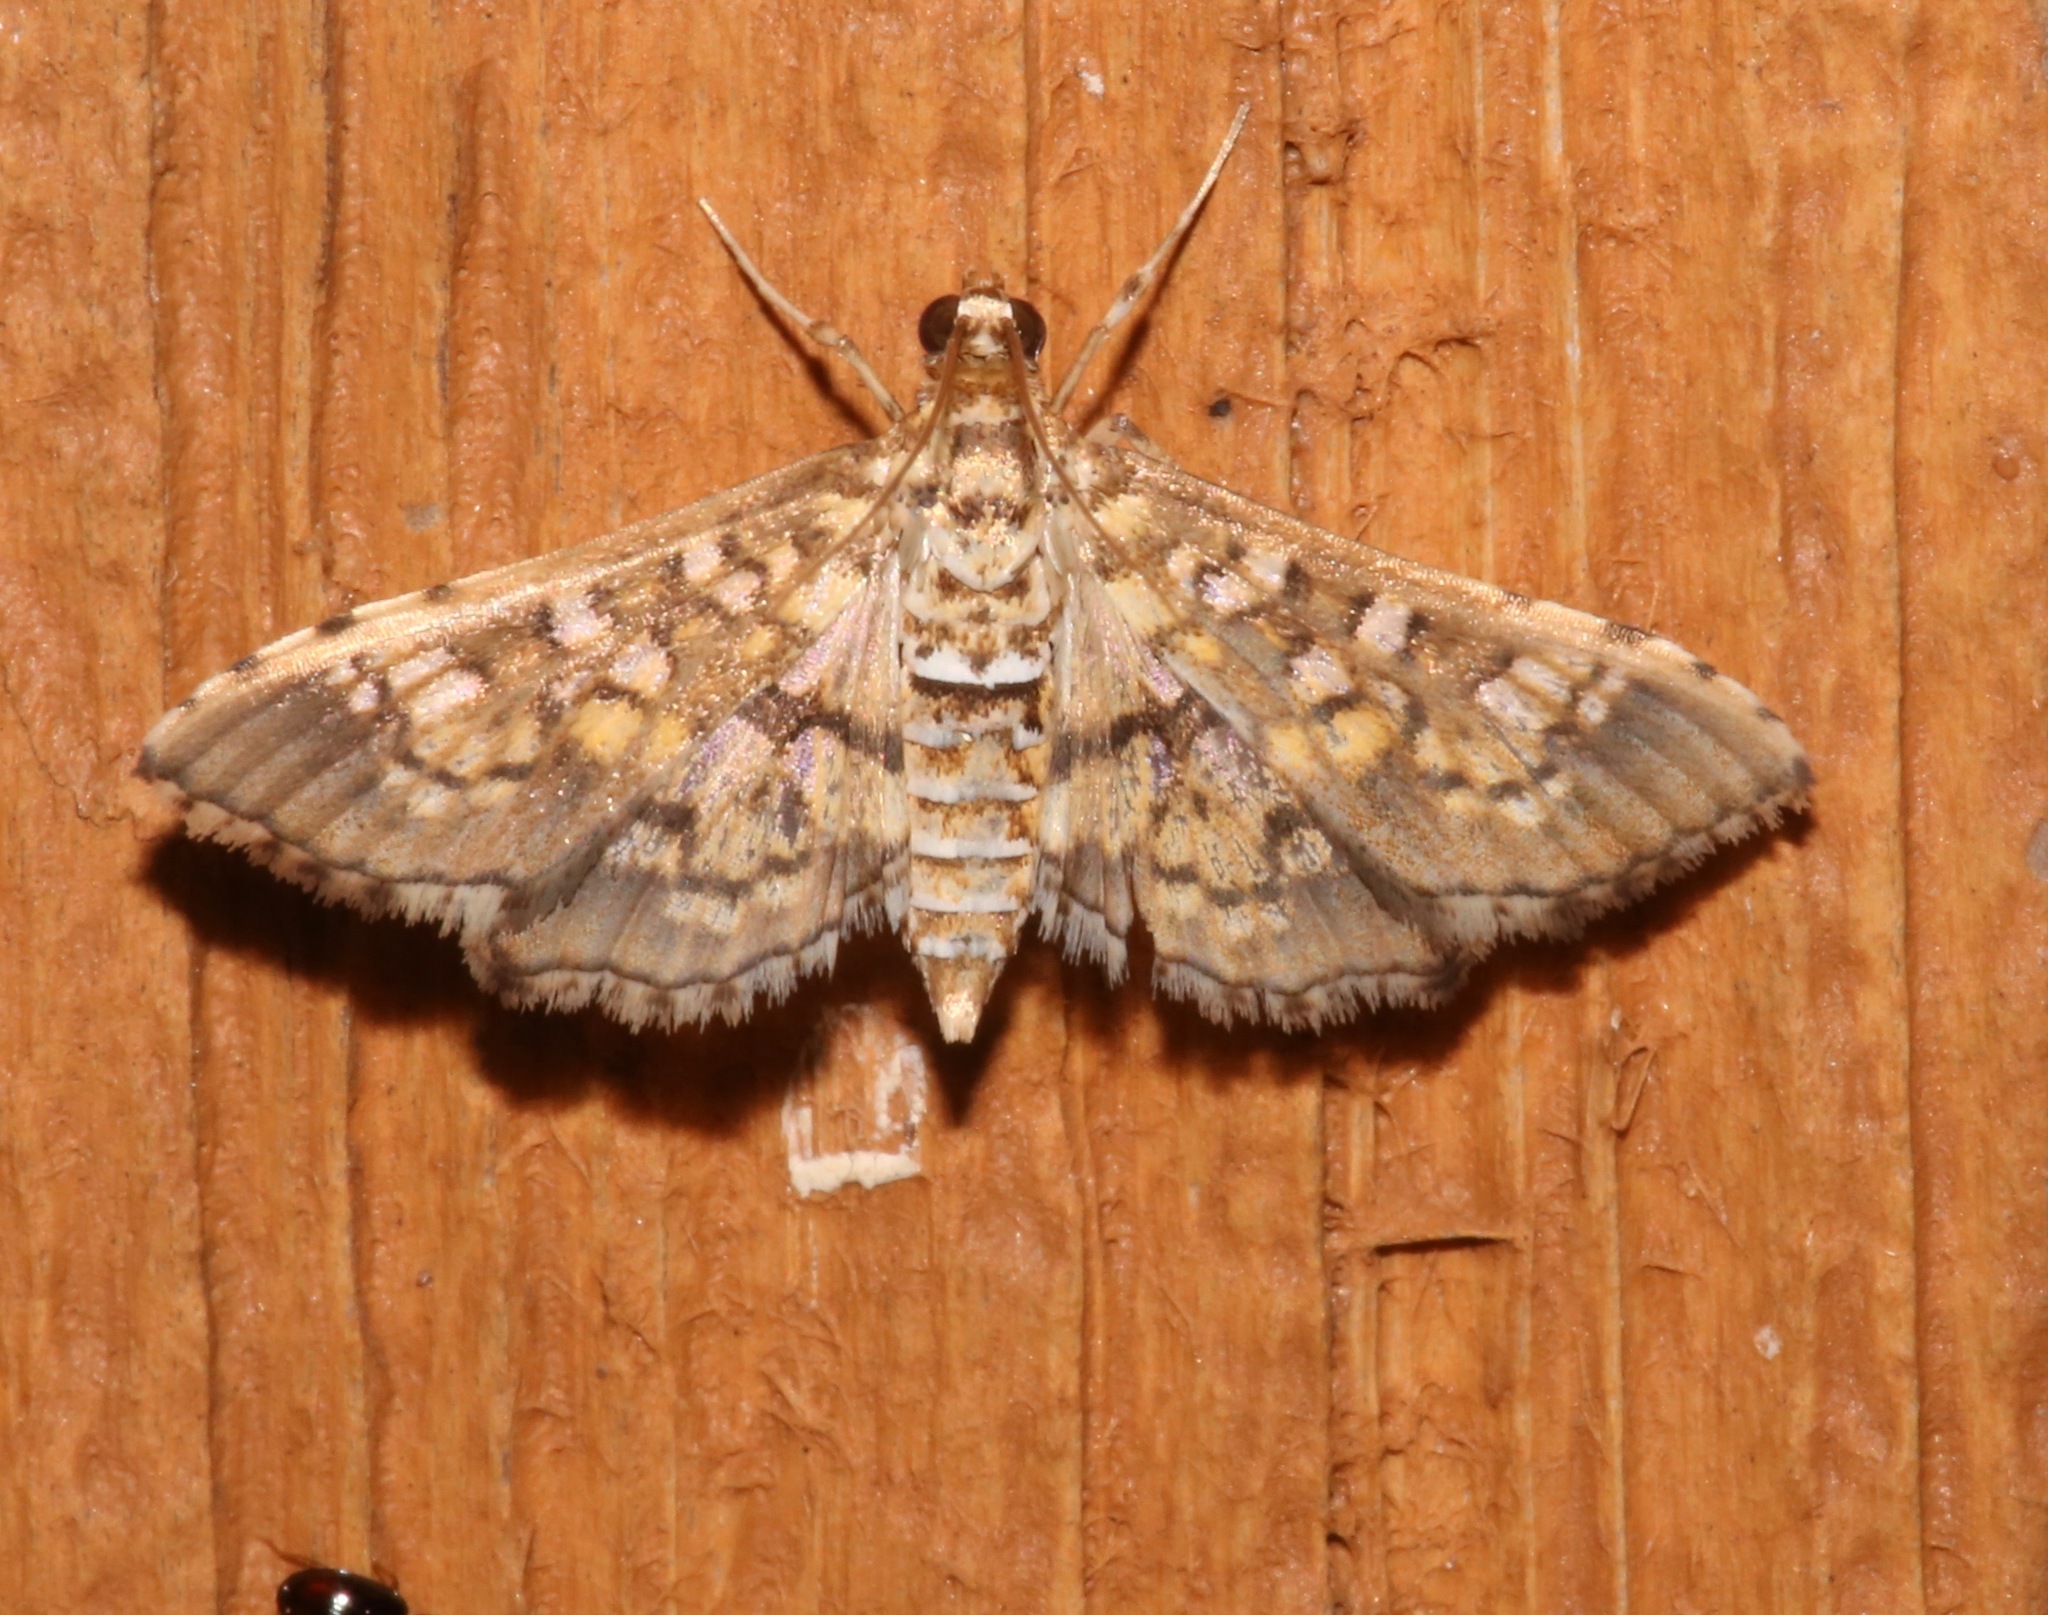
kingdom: Animalia
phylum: Arthropoda
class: Insecta
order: Lepidoptera
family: Crambidae
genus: Samea
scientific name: Samea ecclesialis
